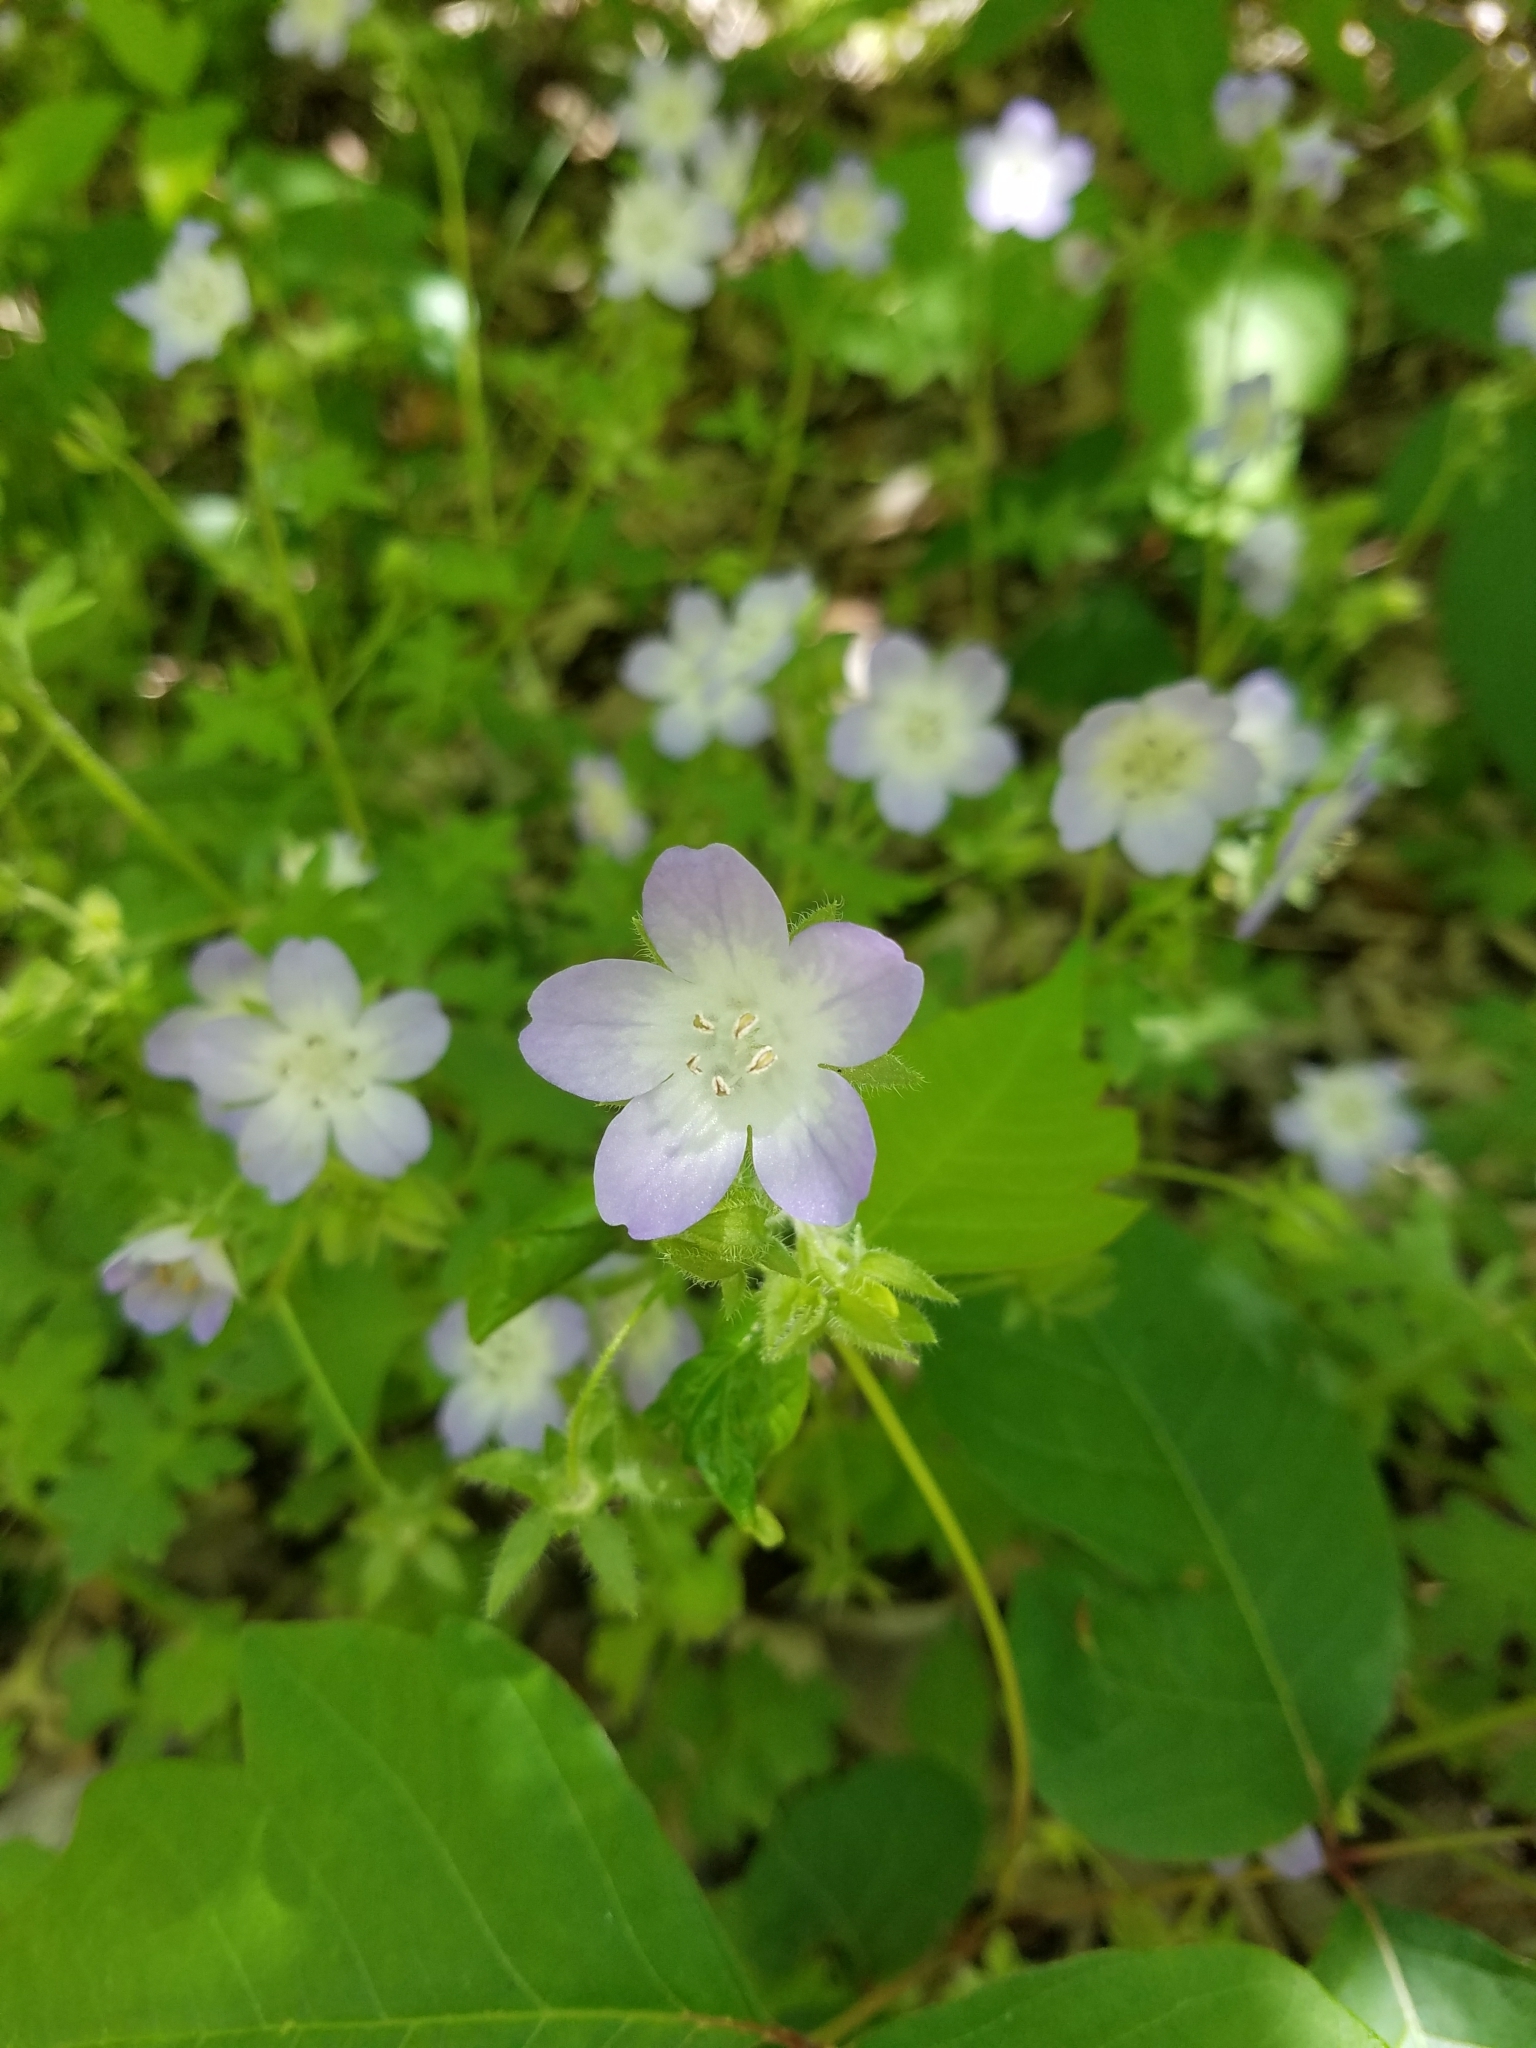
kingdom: Plantae
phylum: Tracheophyta
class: Magnoliopsida
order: Boraginales
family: Hydrophyllaceae
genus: Nemophila
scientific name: Nemophila phacelioides
